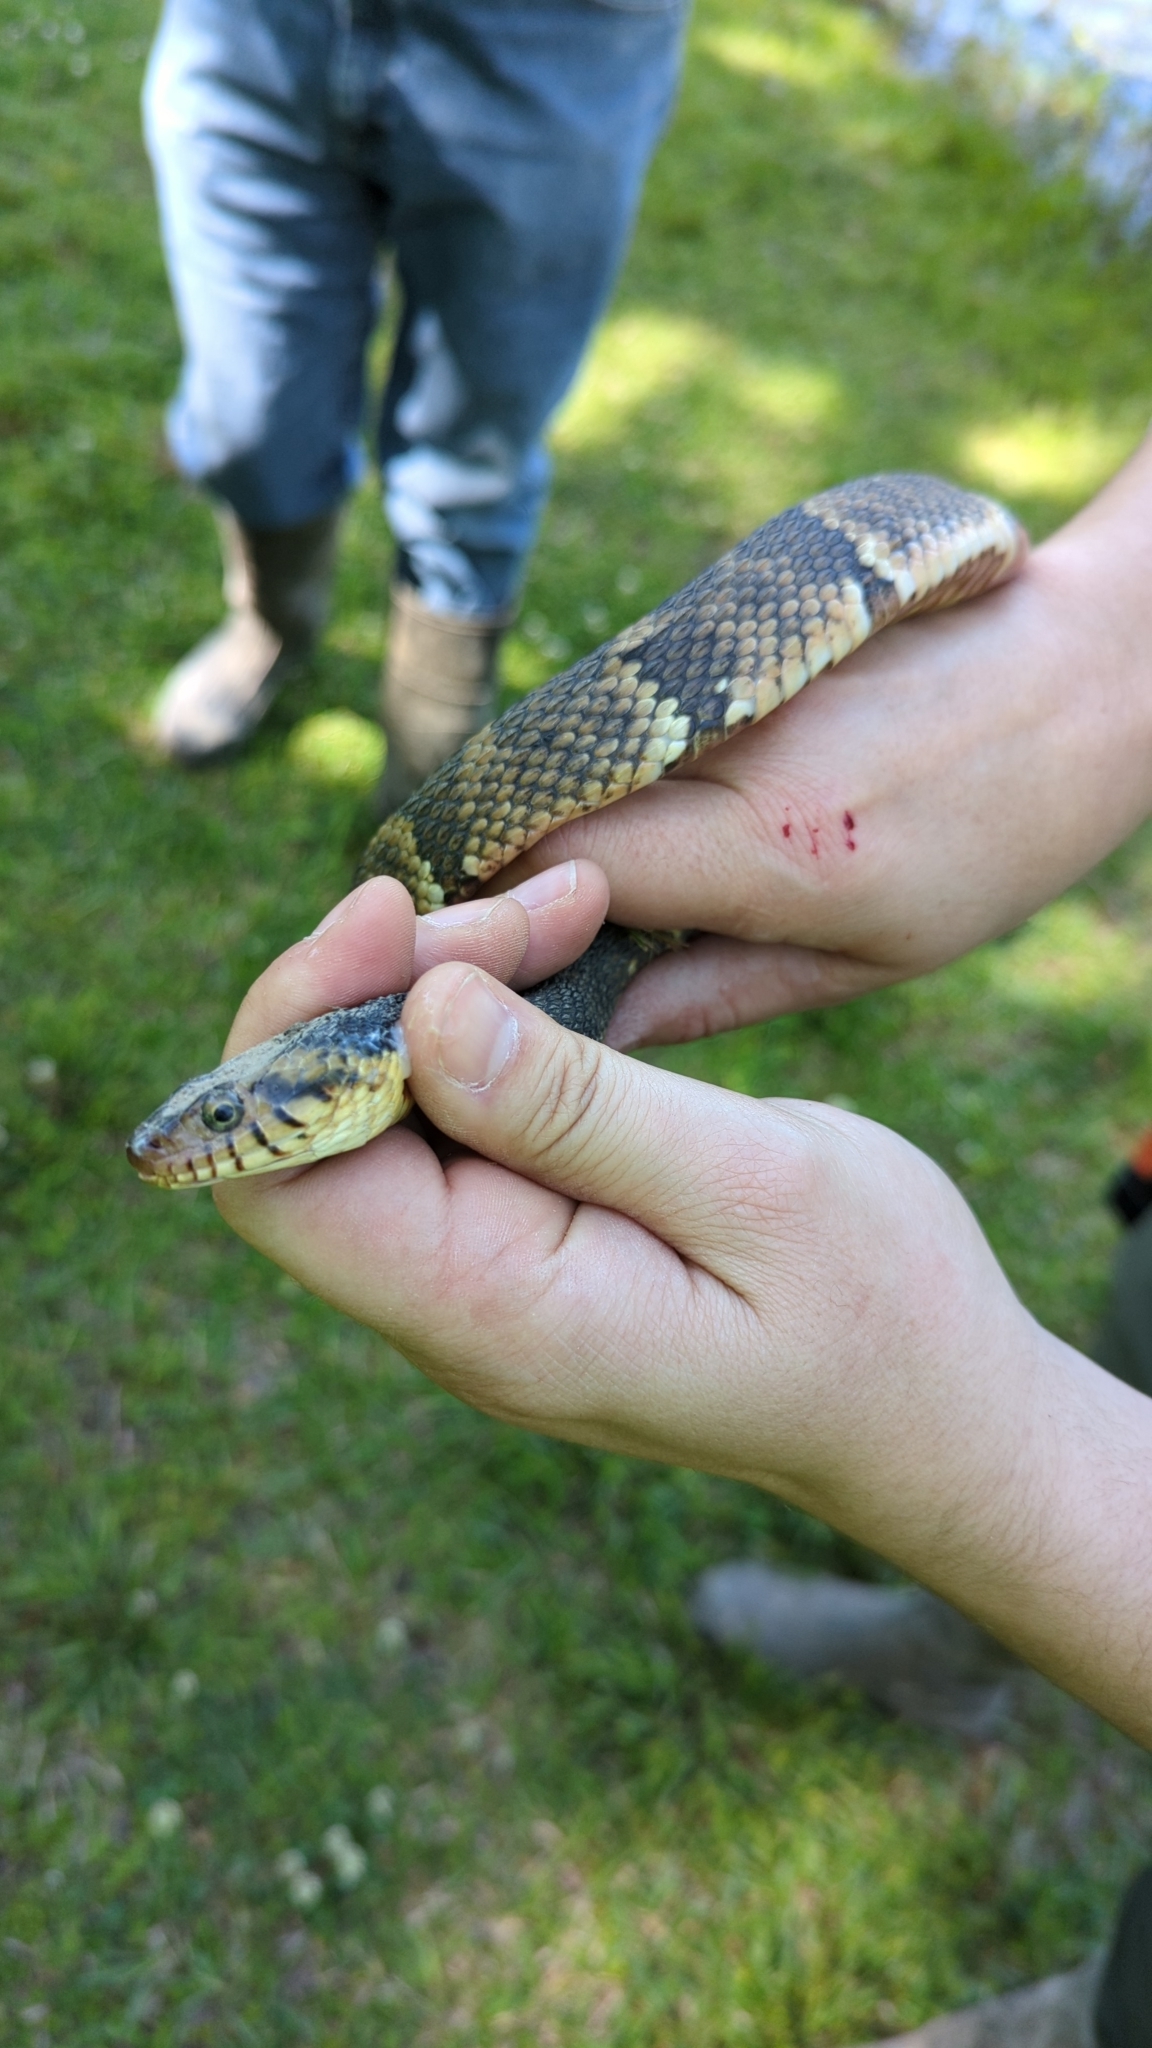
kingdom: Animalia
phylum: Chordata
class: Squamata
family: Colubridae
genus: Nerodia
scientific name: Nerodia fasciata
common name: Southern water snake
